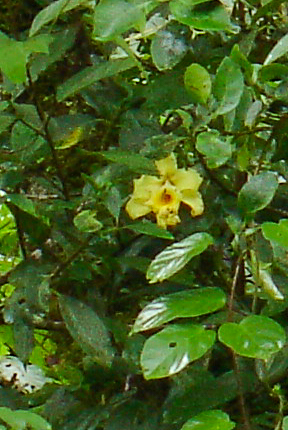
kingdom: Plantae
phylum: Tracheophyta
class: Liliopsida
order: Asparagales
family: Orchidaceae
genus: Sobralia
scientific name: Sobralia xantholeuca
